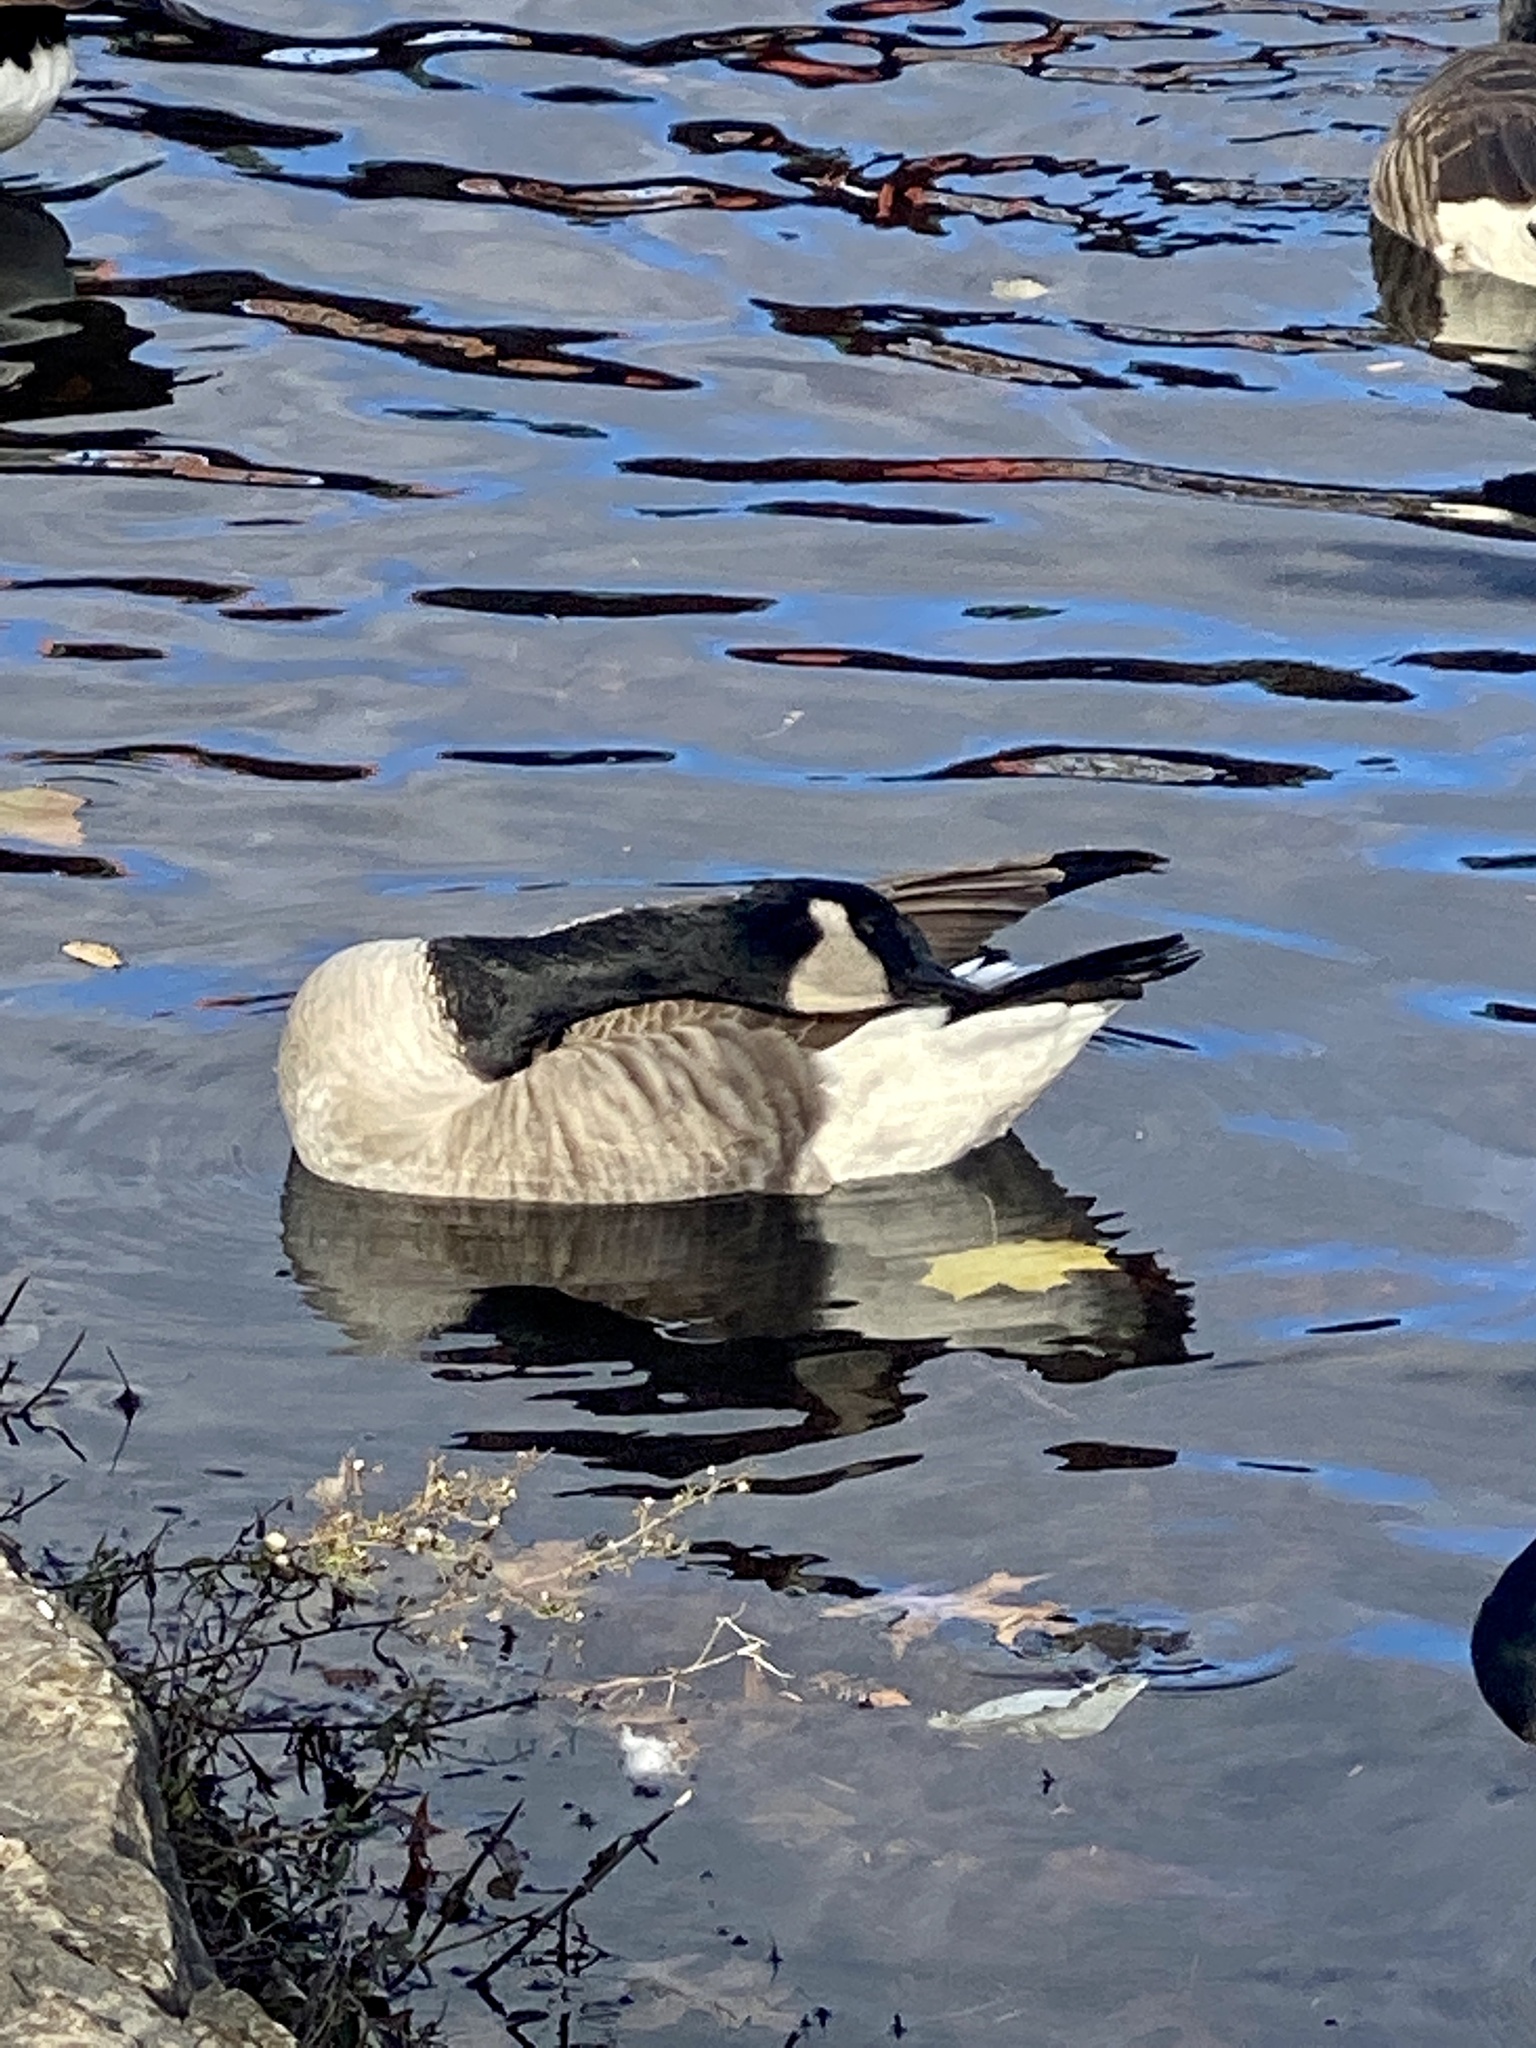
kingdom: Animalia
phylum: Chordata
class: Aves
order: Anseriformes
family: Anatidae
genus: Branta
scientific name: Branta canadensis
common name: Canada goose
